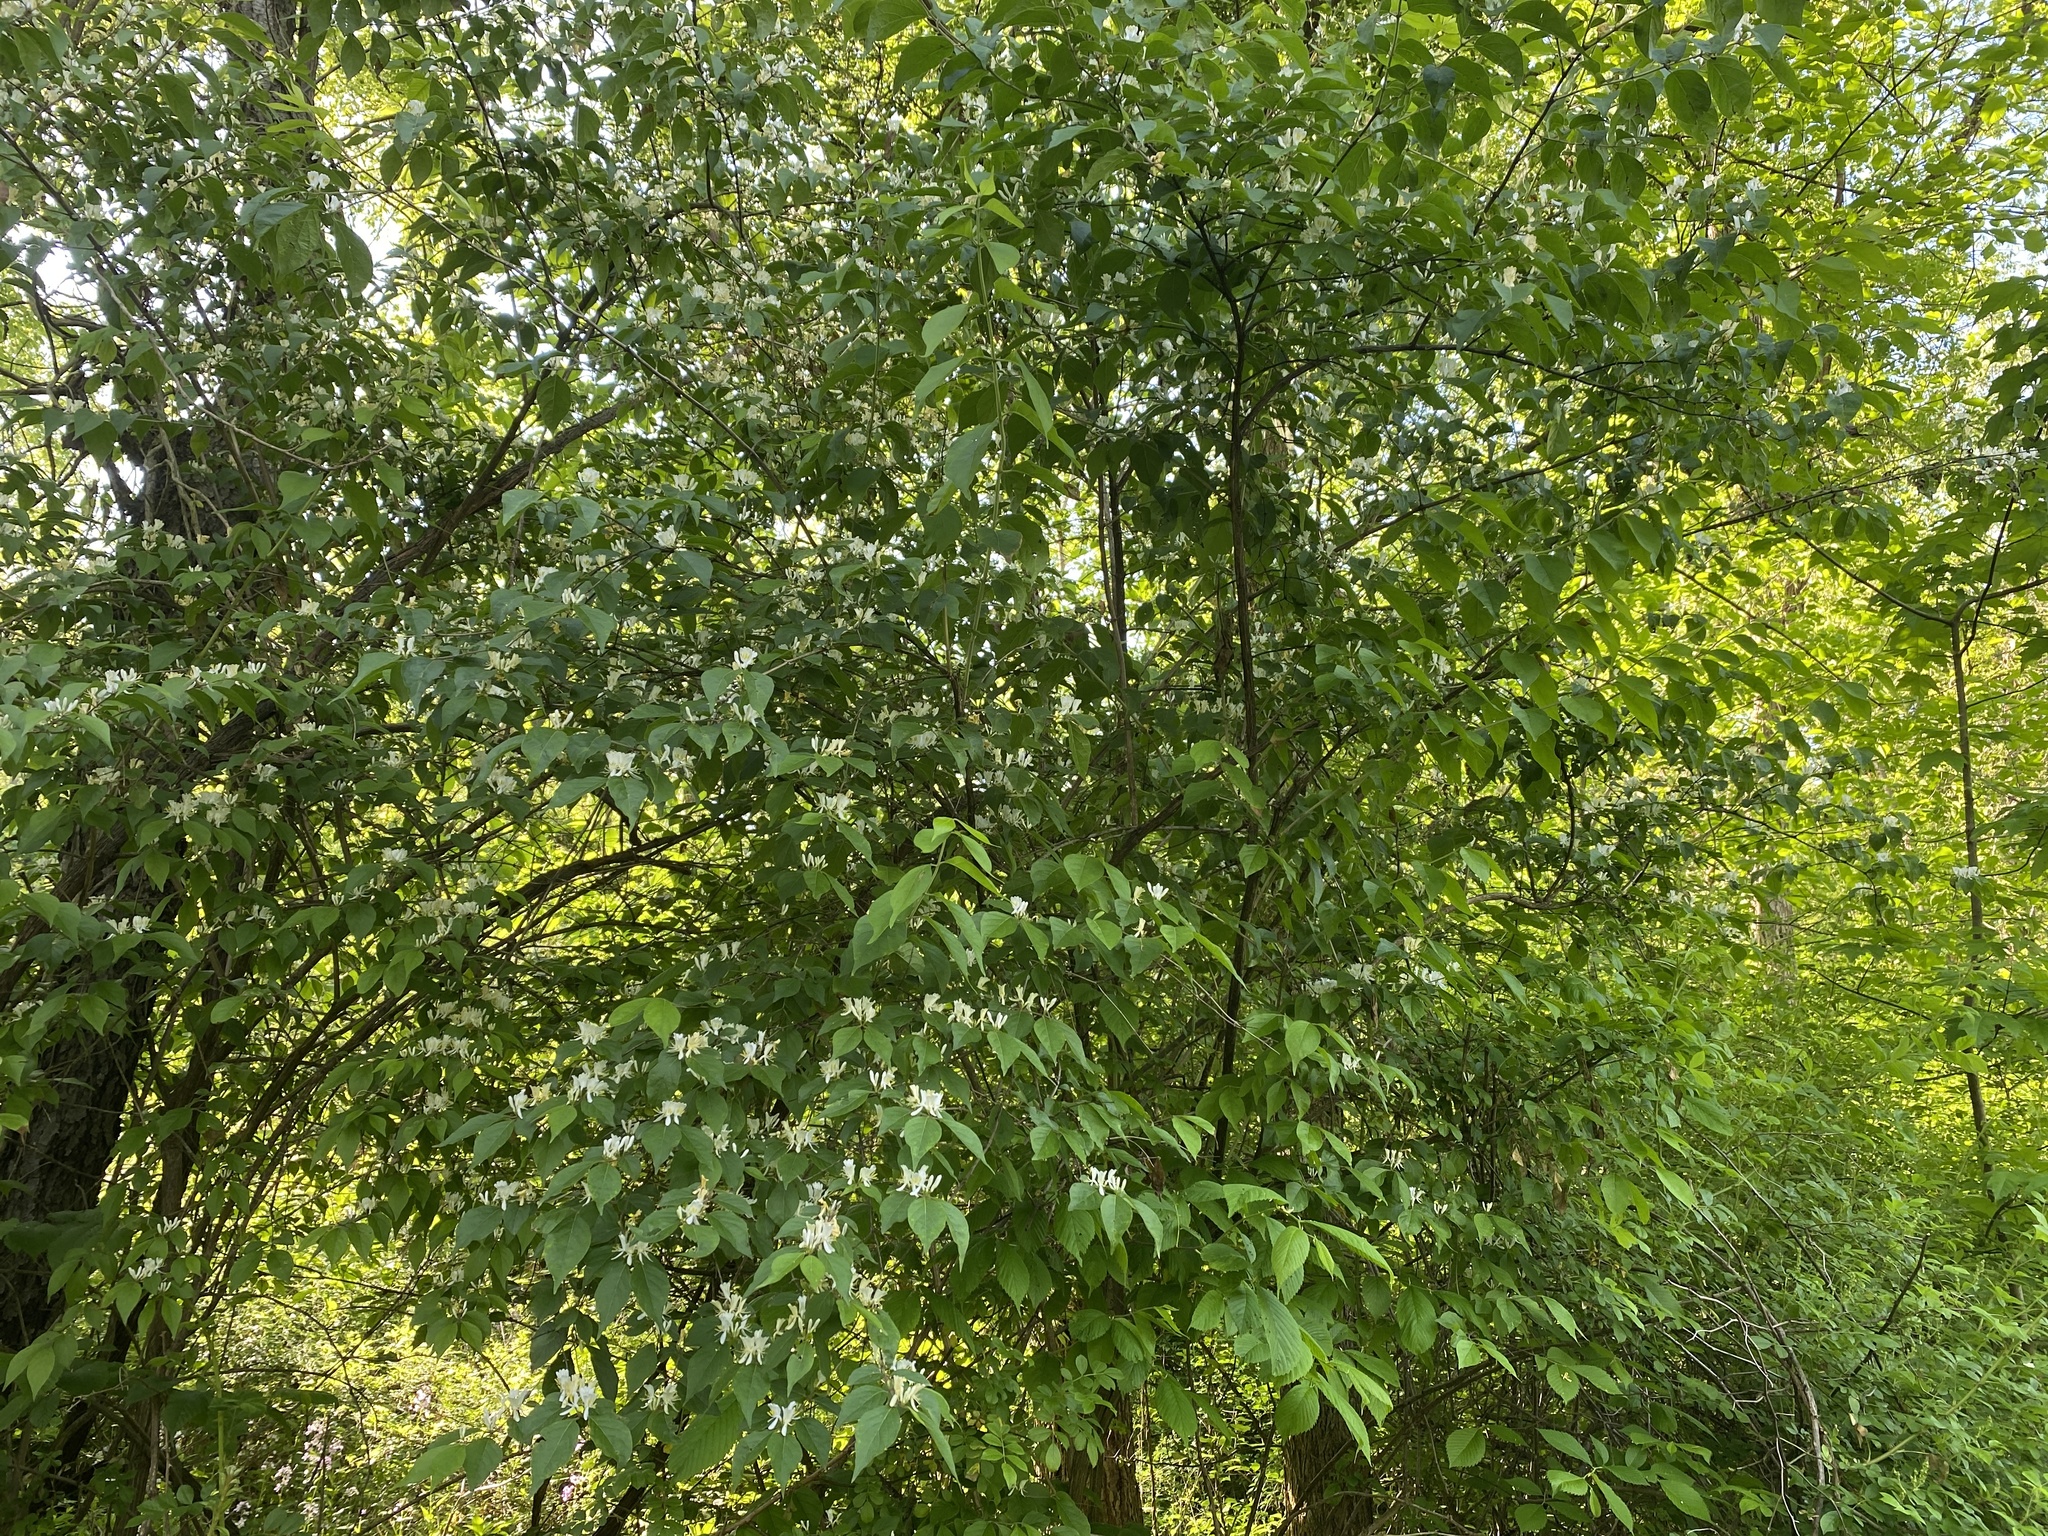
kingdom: Plantae
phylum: Tracheophyta
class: Magnoliopsida
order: Dipsacales
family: Caprifoliaceae
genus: Lonicera
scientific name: Lonicera maackii
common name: Amur honeysuckle
